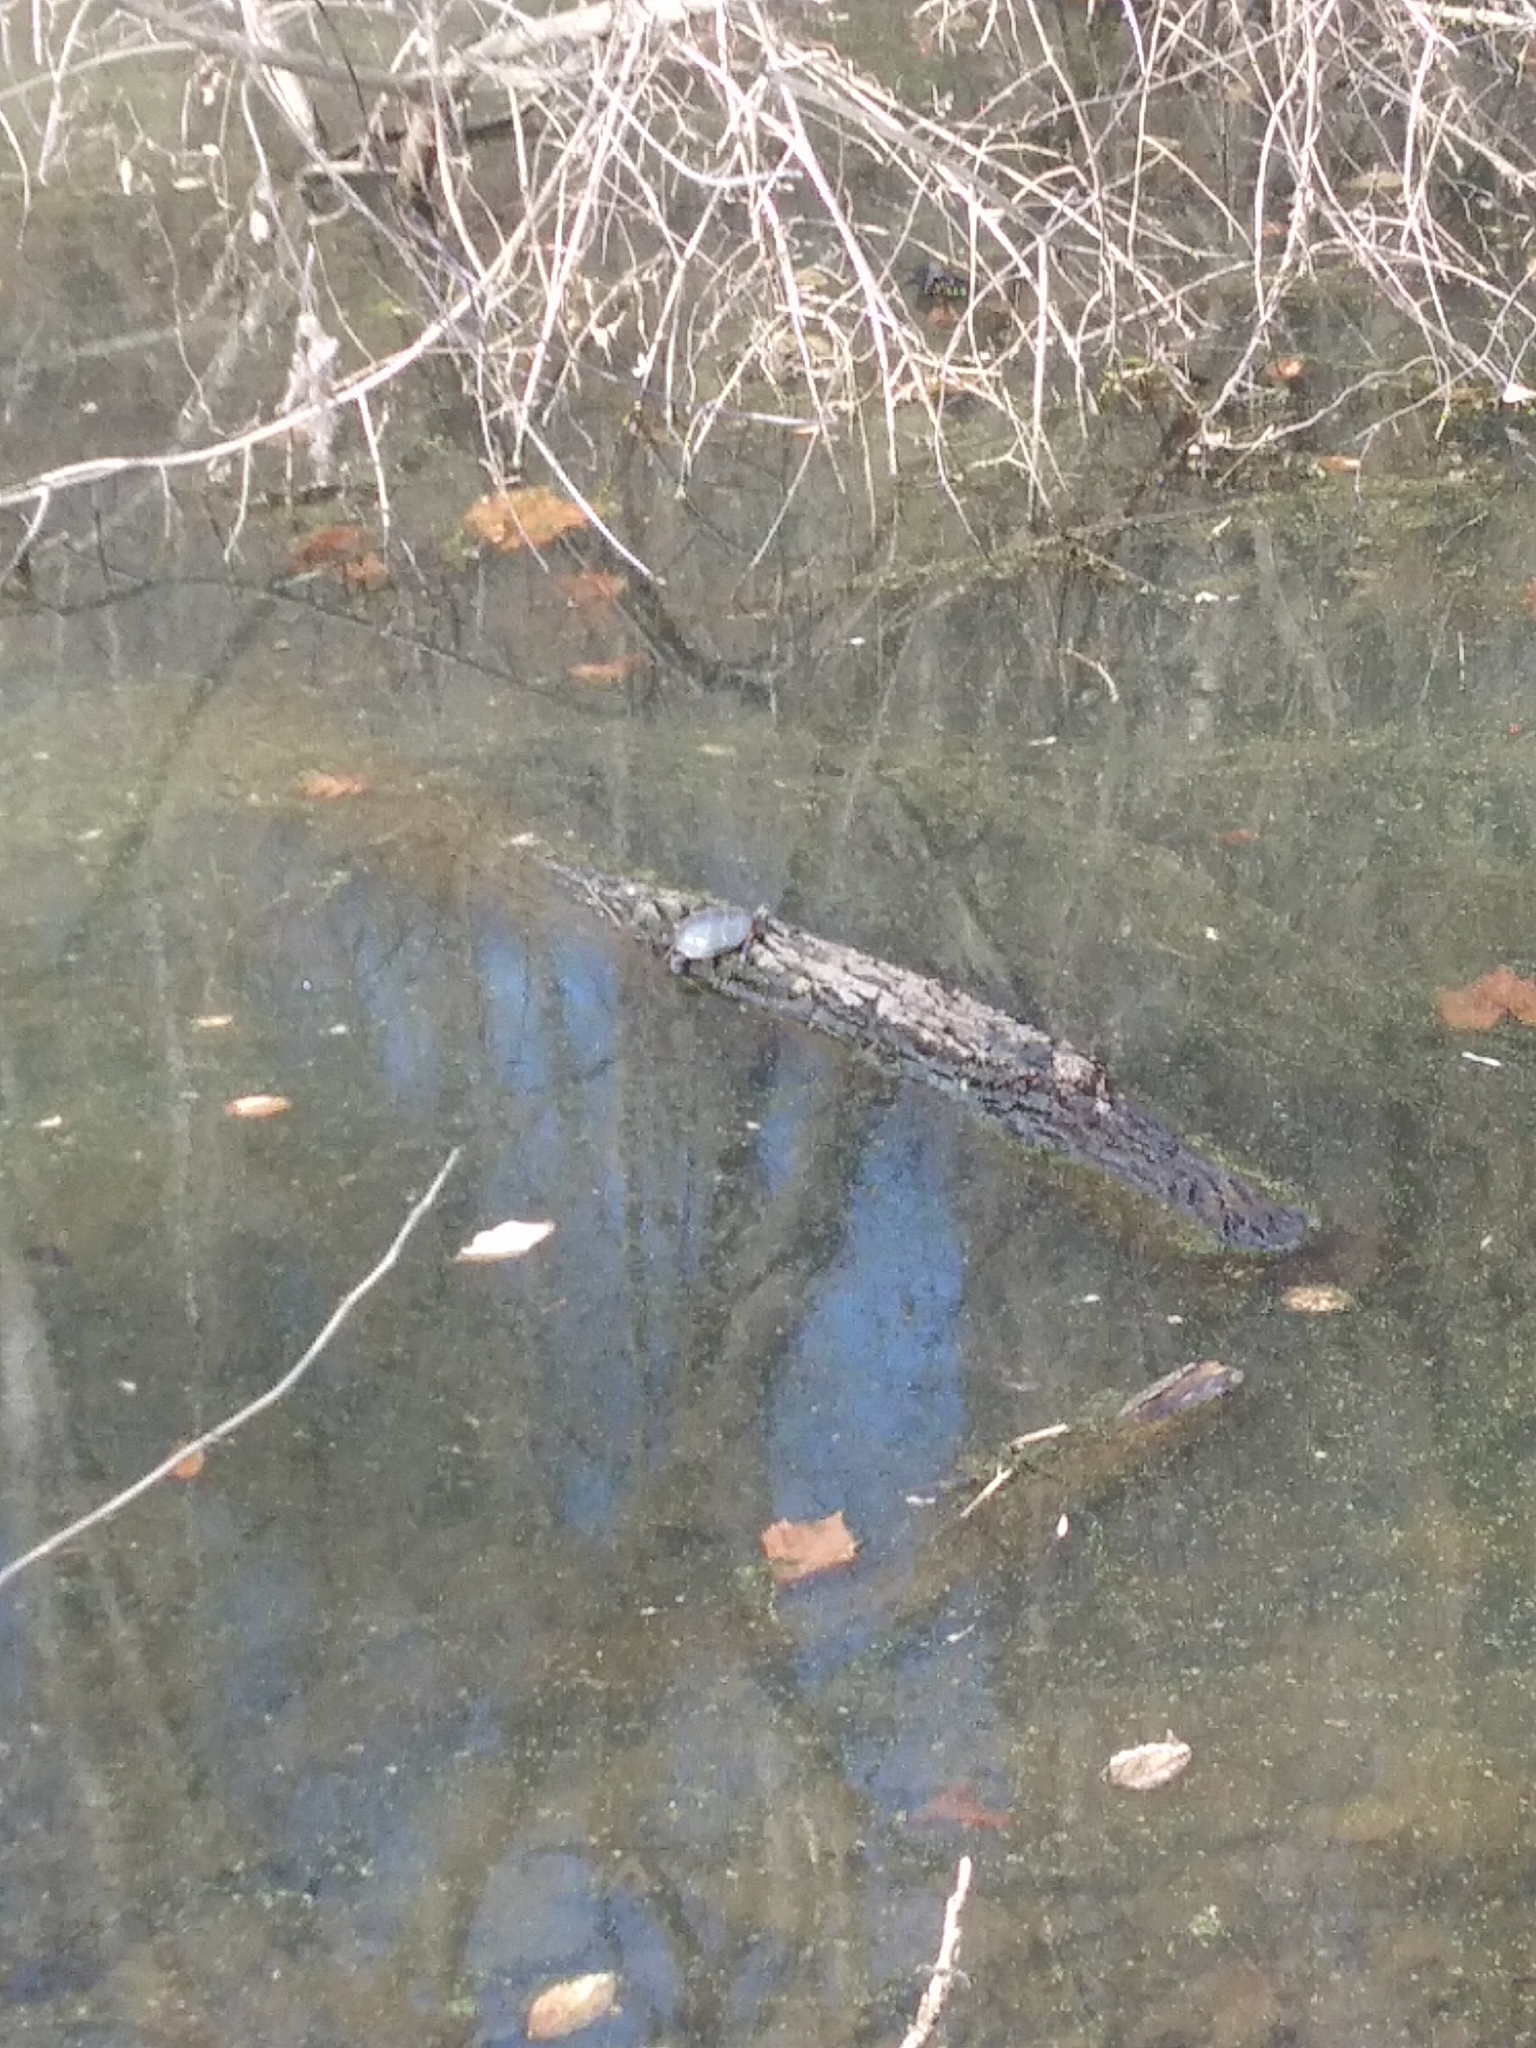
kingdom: Animalia
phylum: Chordata
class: Testudines
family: Emydidae
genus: Chrysemys
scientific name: Chrysemys picta
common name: Painted turtle
